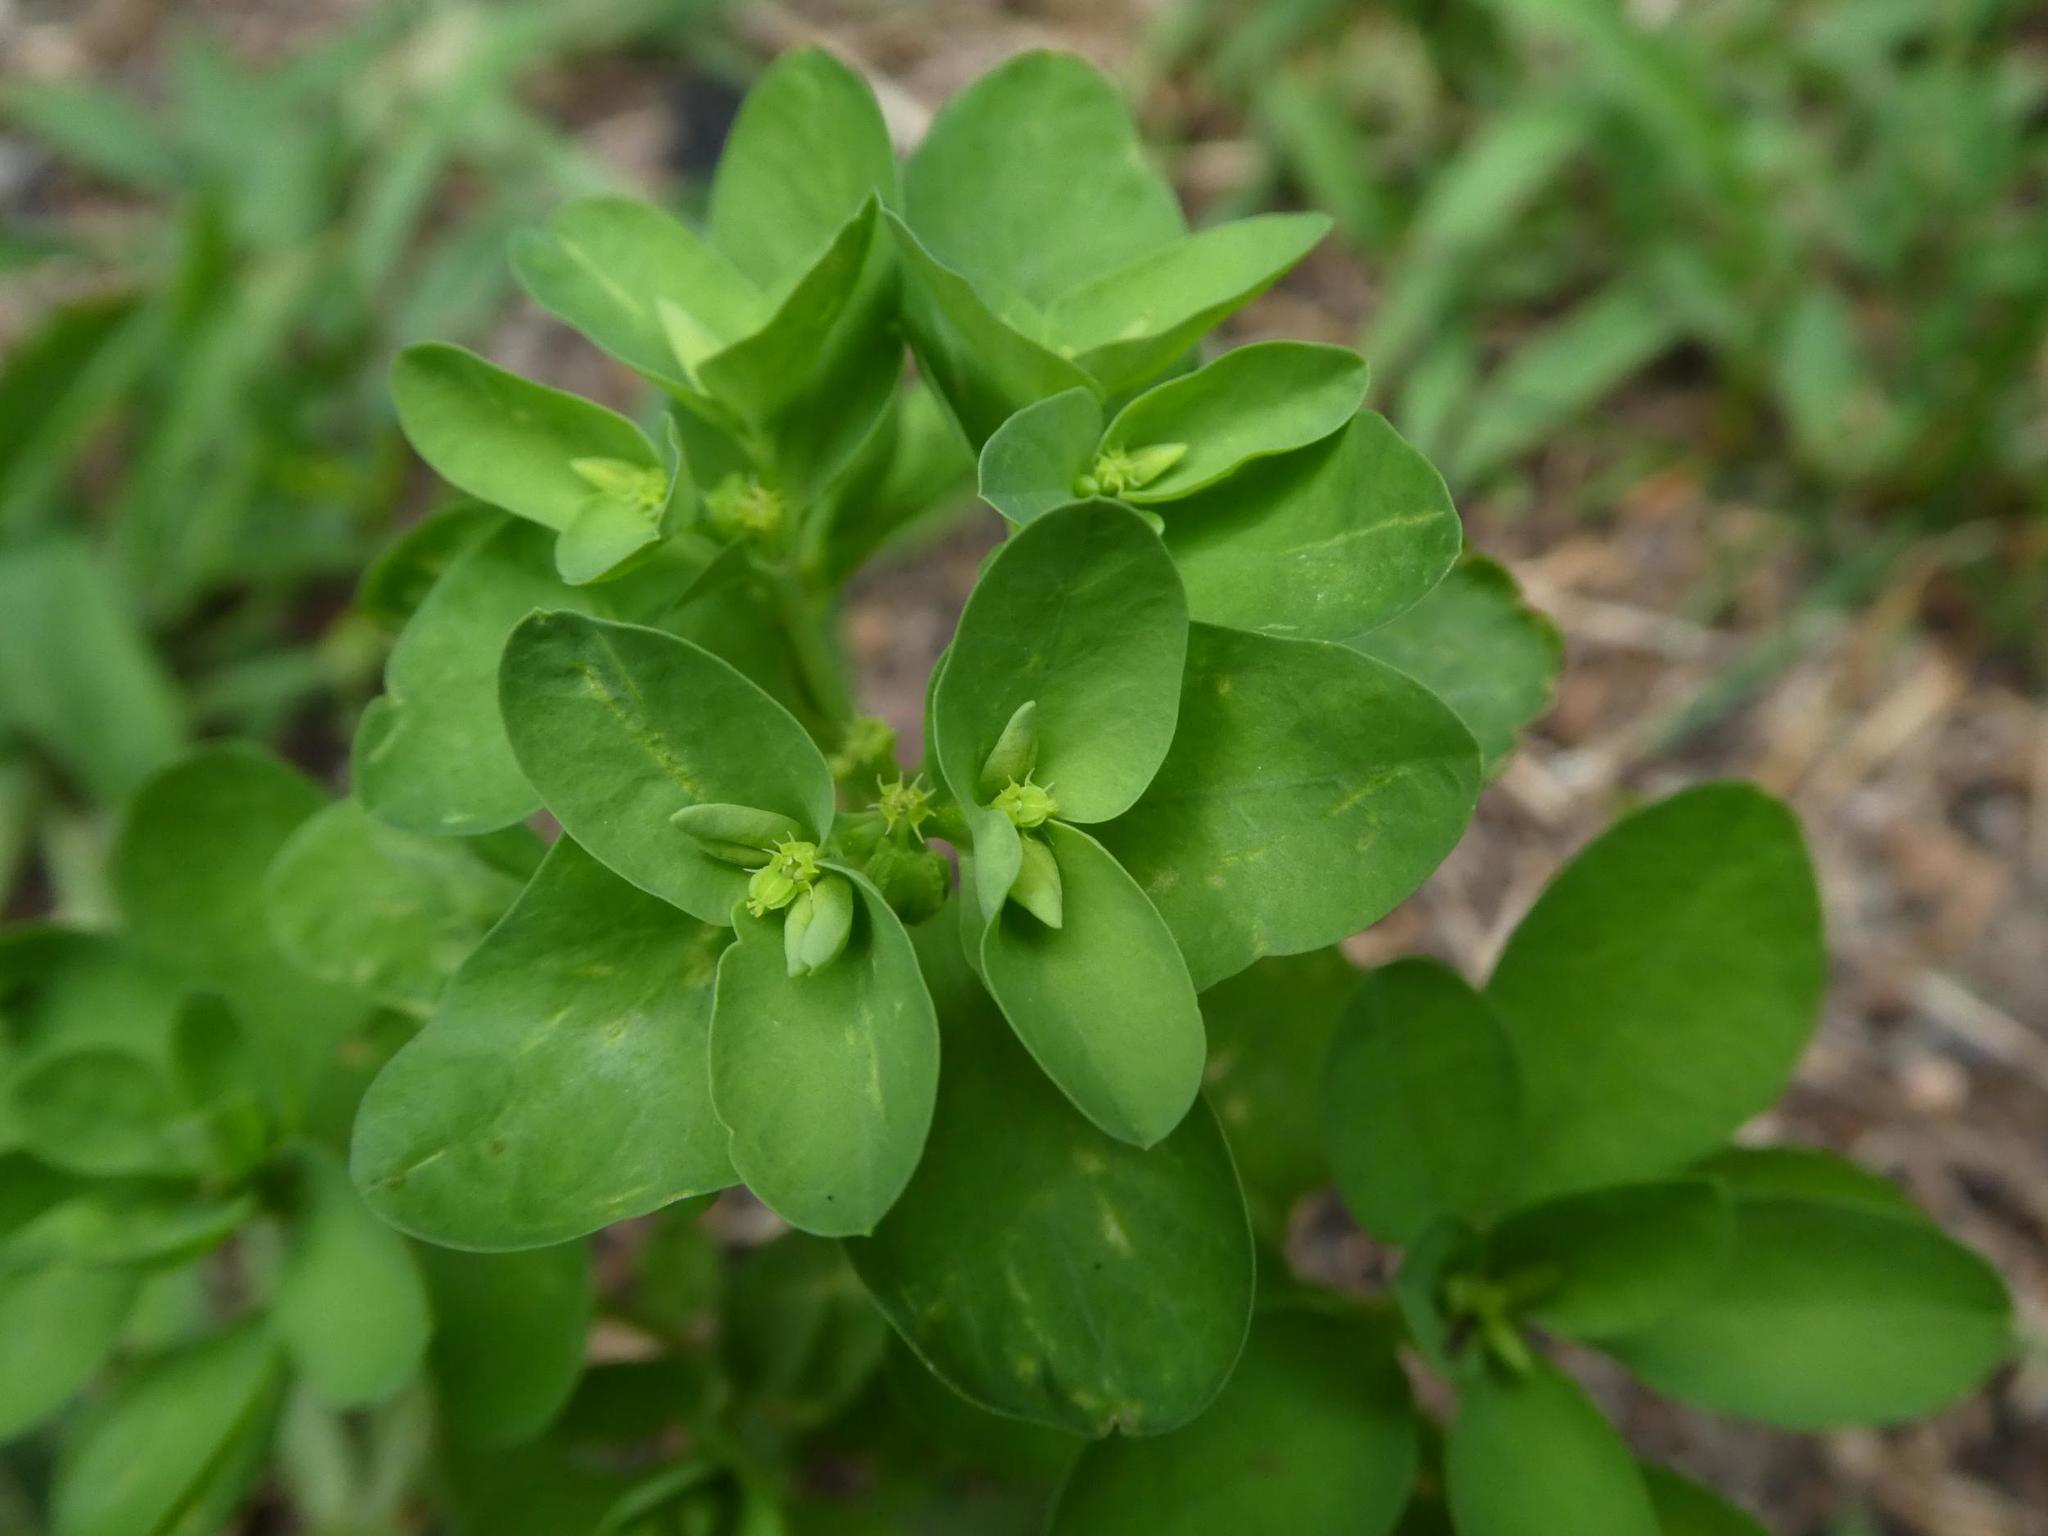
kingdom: Plantae
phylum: Tracheophyta
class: Magnoliopsida
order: Malpighiales
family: Euphorbiaceae
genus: Euphorbia
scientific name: Euphorbia peplus
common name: Petty spurge
